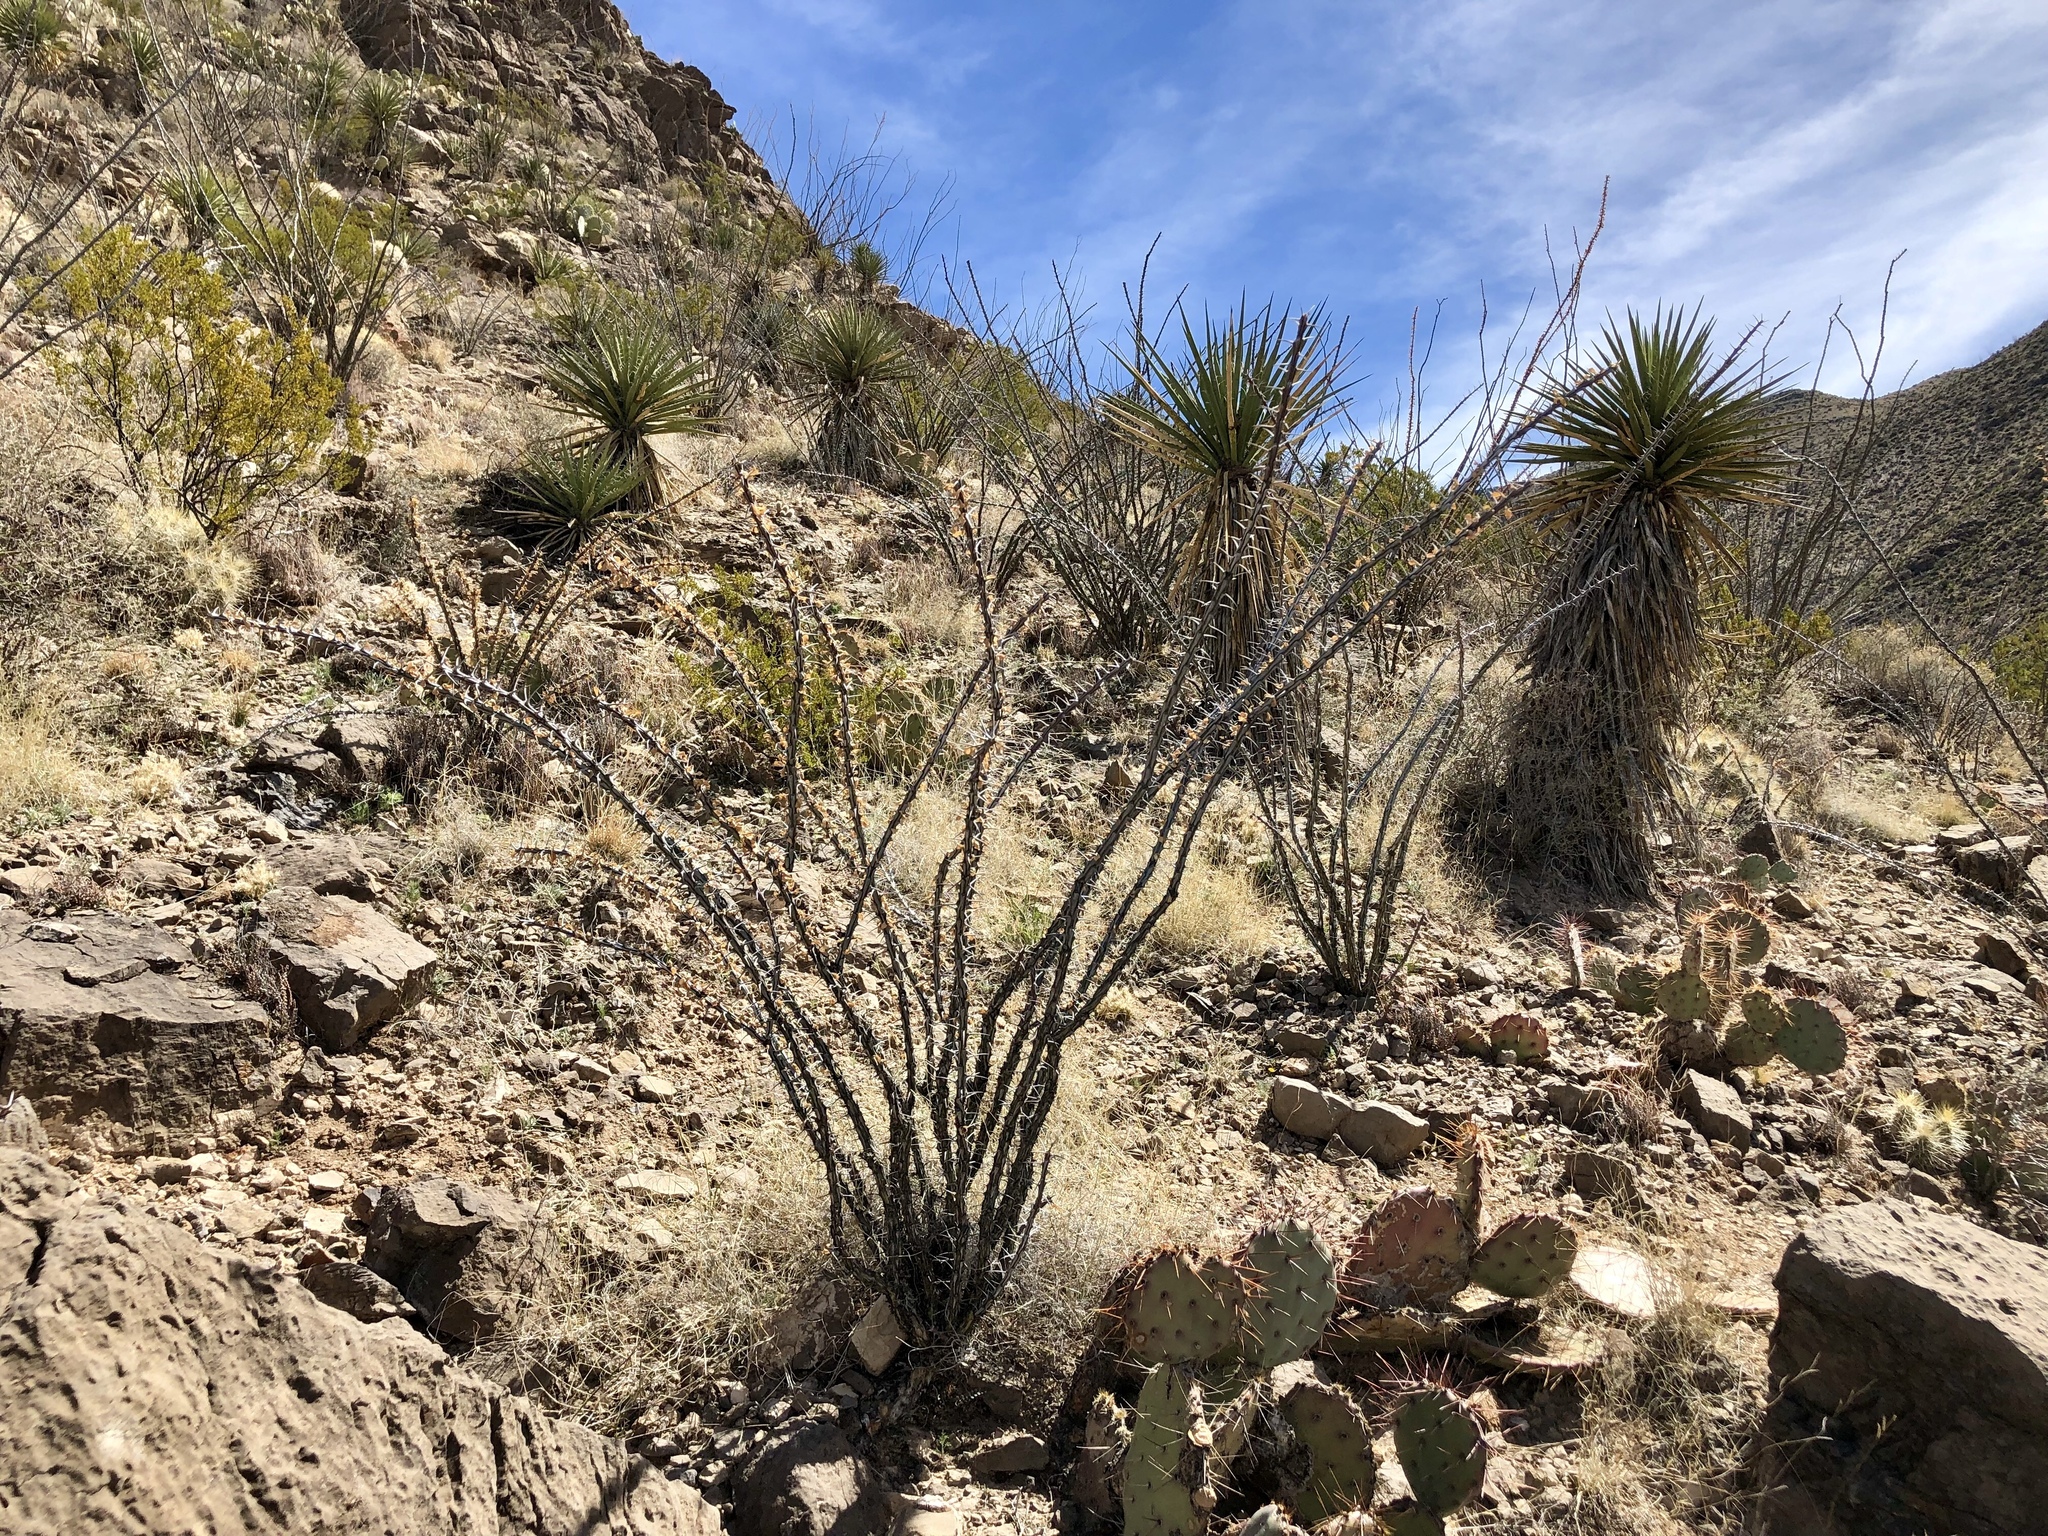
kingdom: Plantae
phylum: Tracheophyta
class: Magnoliopsida
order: Ericales
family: Fouquieriaceae
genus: Fouquieria
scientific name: Fouquieria splendens
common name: Vine-cactus
